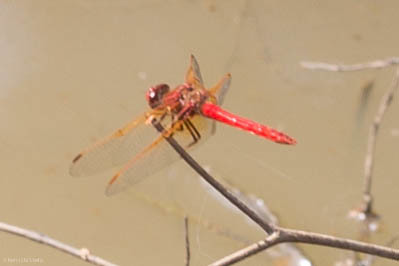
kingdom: Animalia
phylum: Arthropoda
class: Insecta
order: Odonata
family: Libellulidae
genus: Sympetrum
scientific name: Sympetrum illotum
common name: Cardinal meadowhawk
